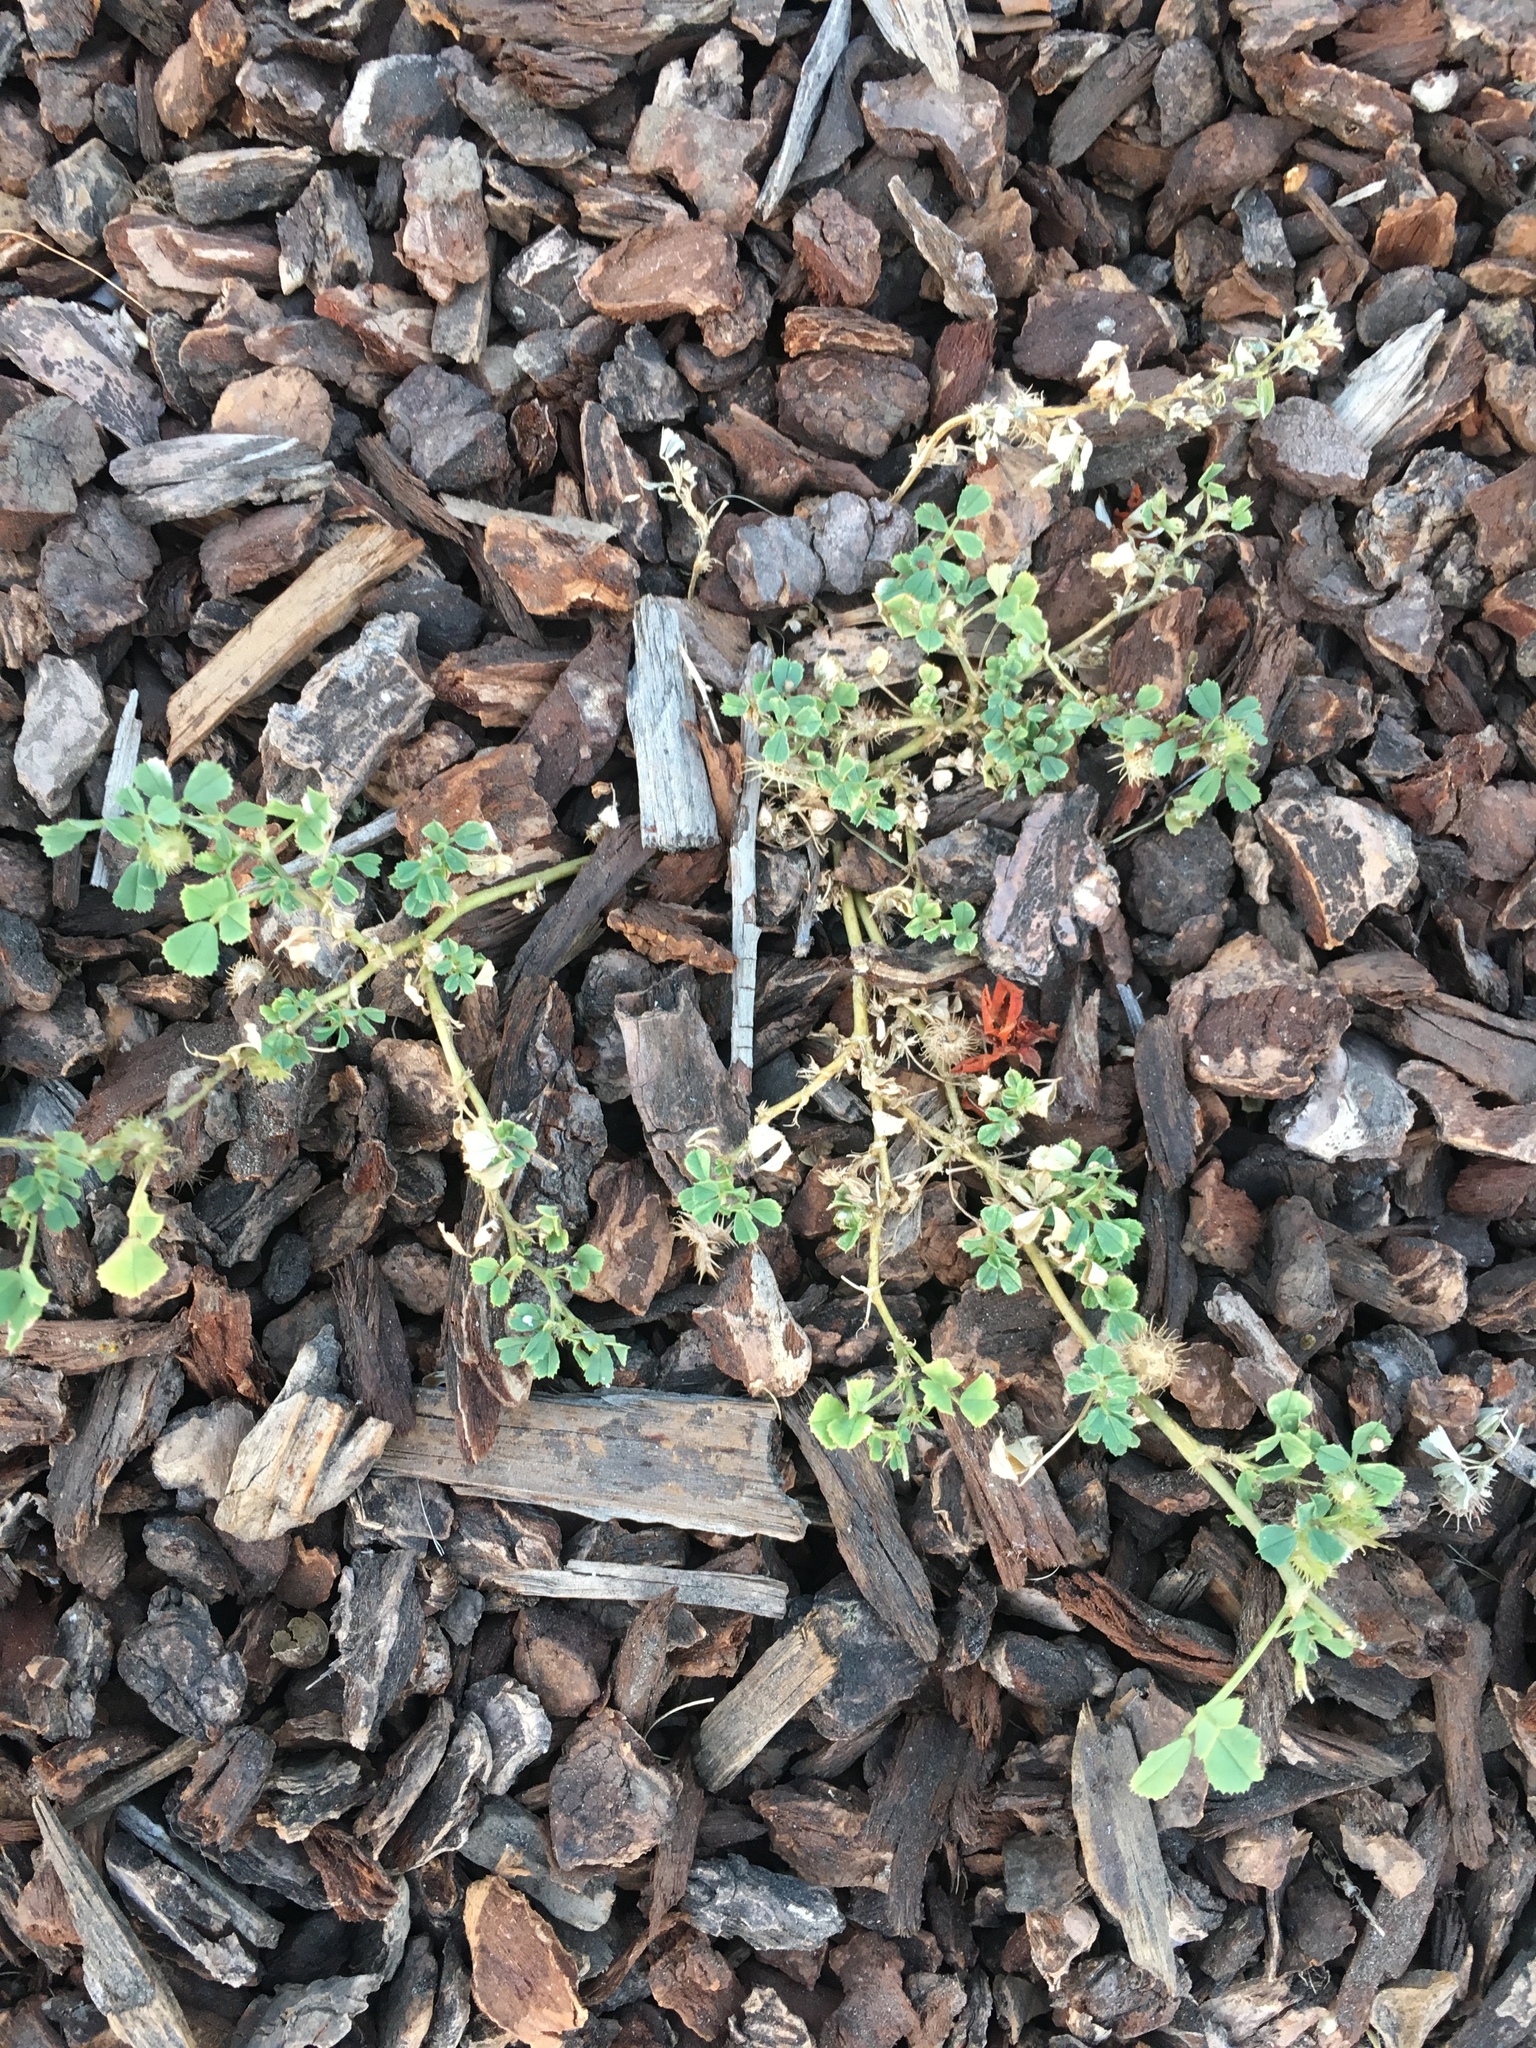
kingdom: Plantae
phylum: Tracheophyta
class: Magnoliopsida
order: Fabales
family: Fabaceae
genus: Medicago
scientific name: Medicago polymorpha
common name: Burclover
